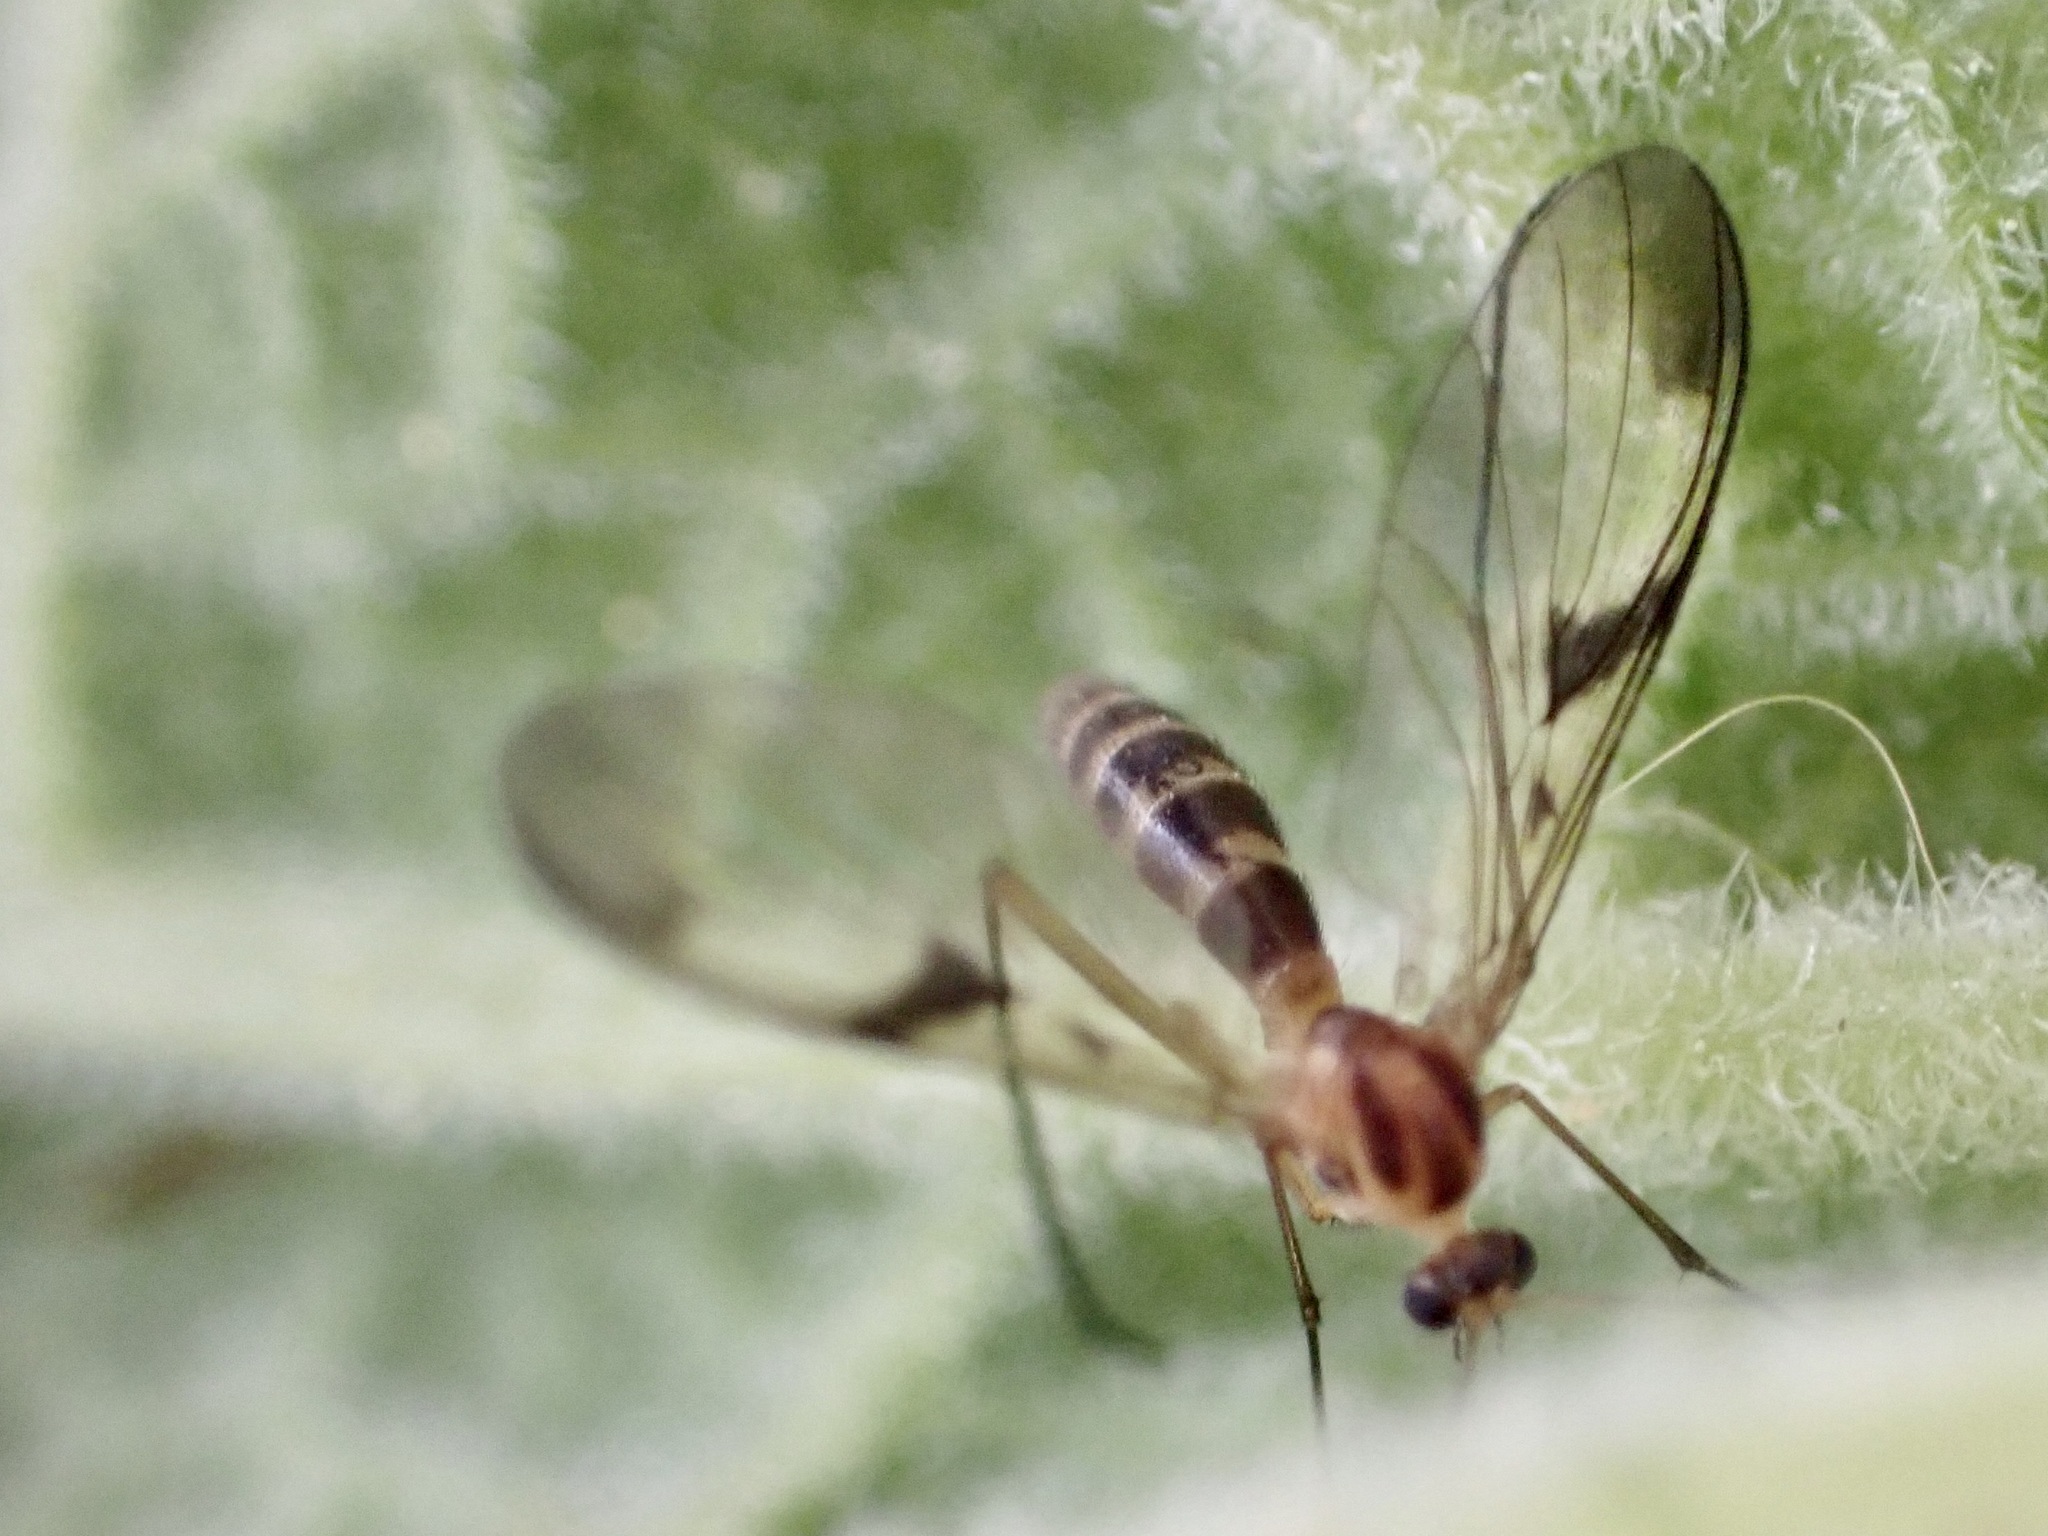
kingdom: Animalia
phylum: Arthropoda
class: Insecta
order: Diptera
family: Keroplatidae
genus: Macrocera
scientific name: Macrocera scoparia
